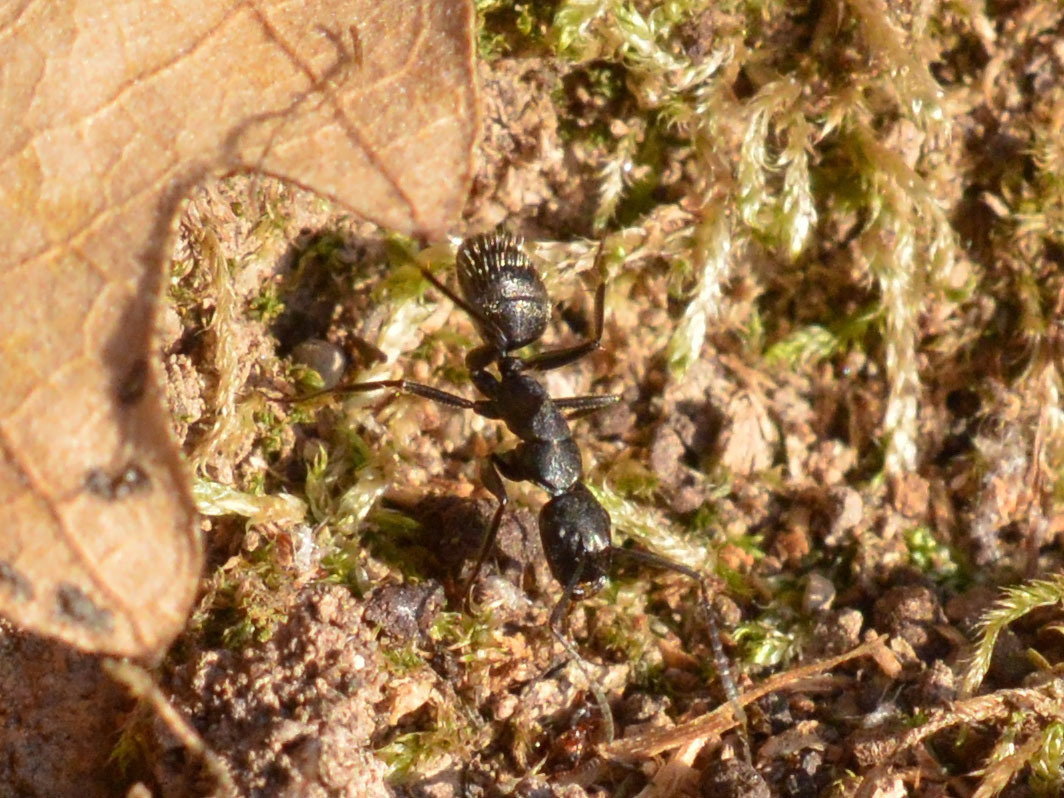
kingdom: Animalia
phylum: Arthropoda
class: Insecta
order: Hymenoptera
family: Formicidae
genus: Camponotus
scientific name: Camponotus vagus
